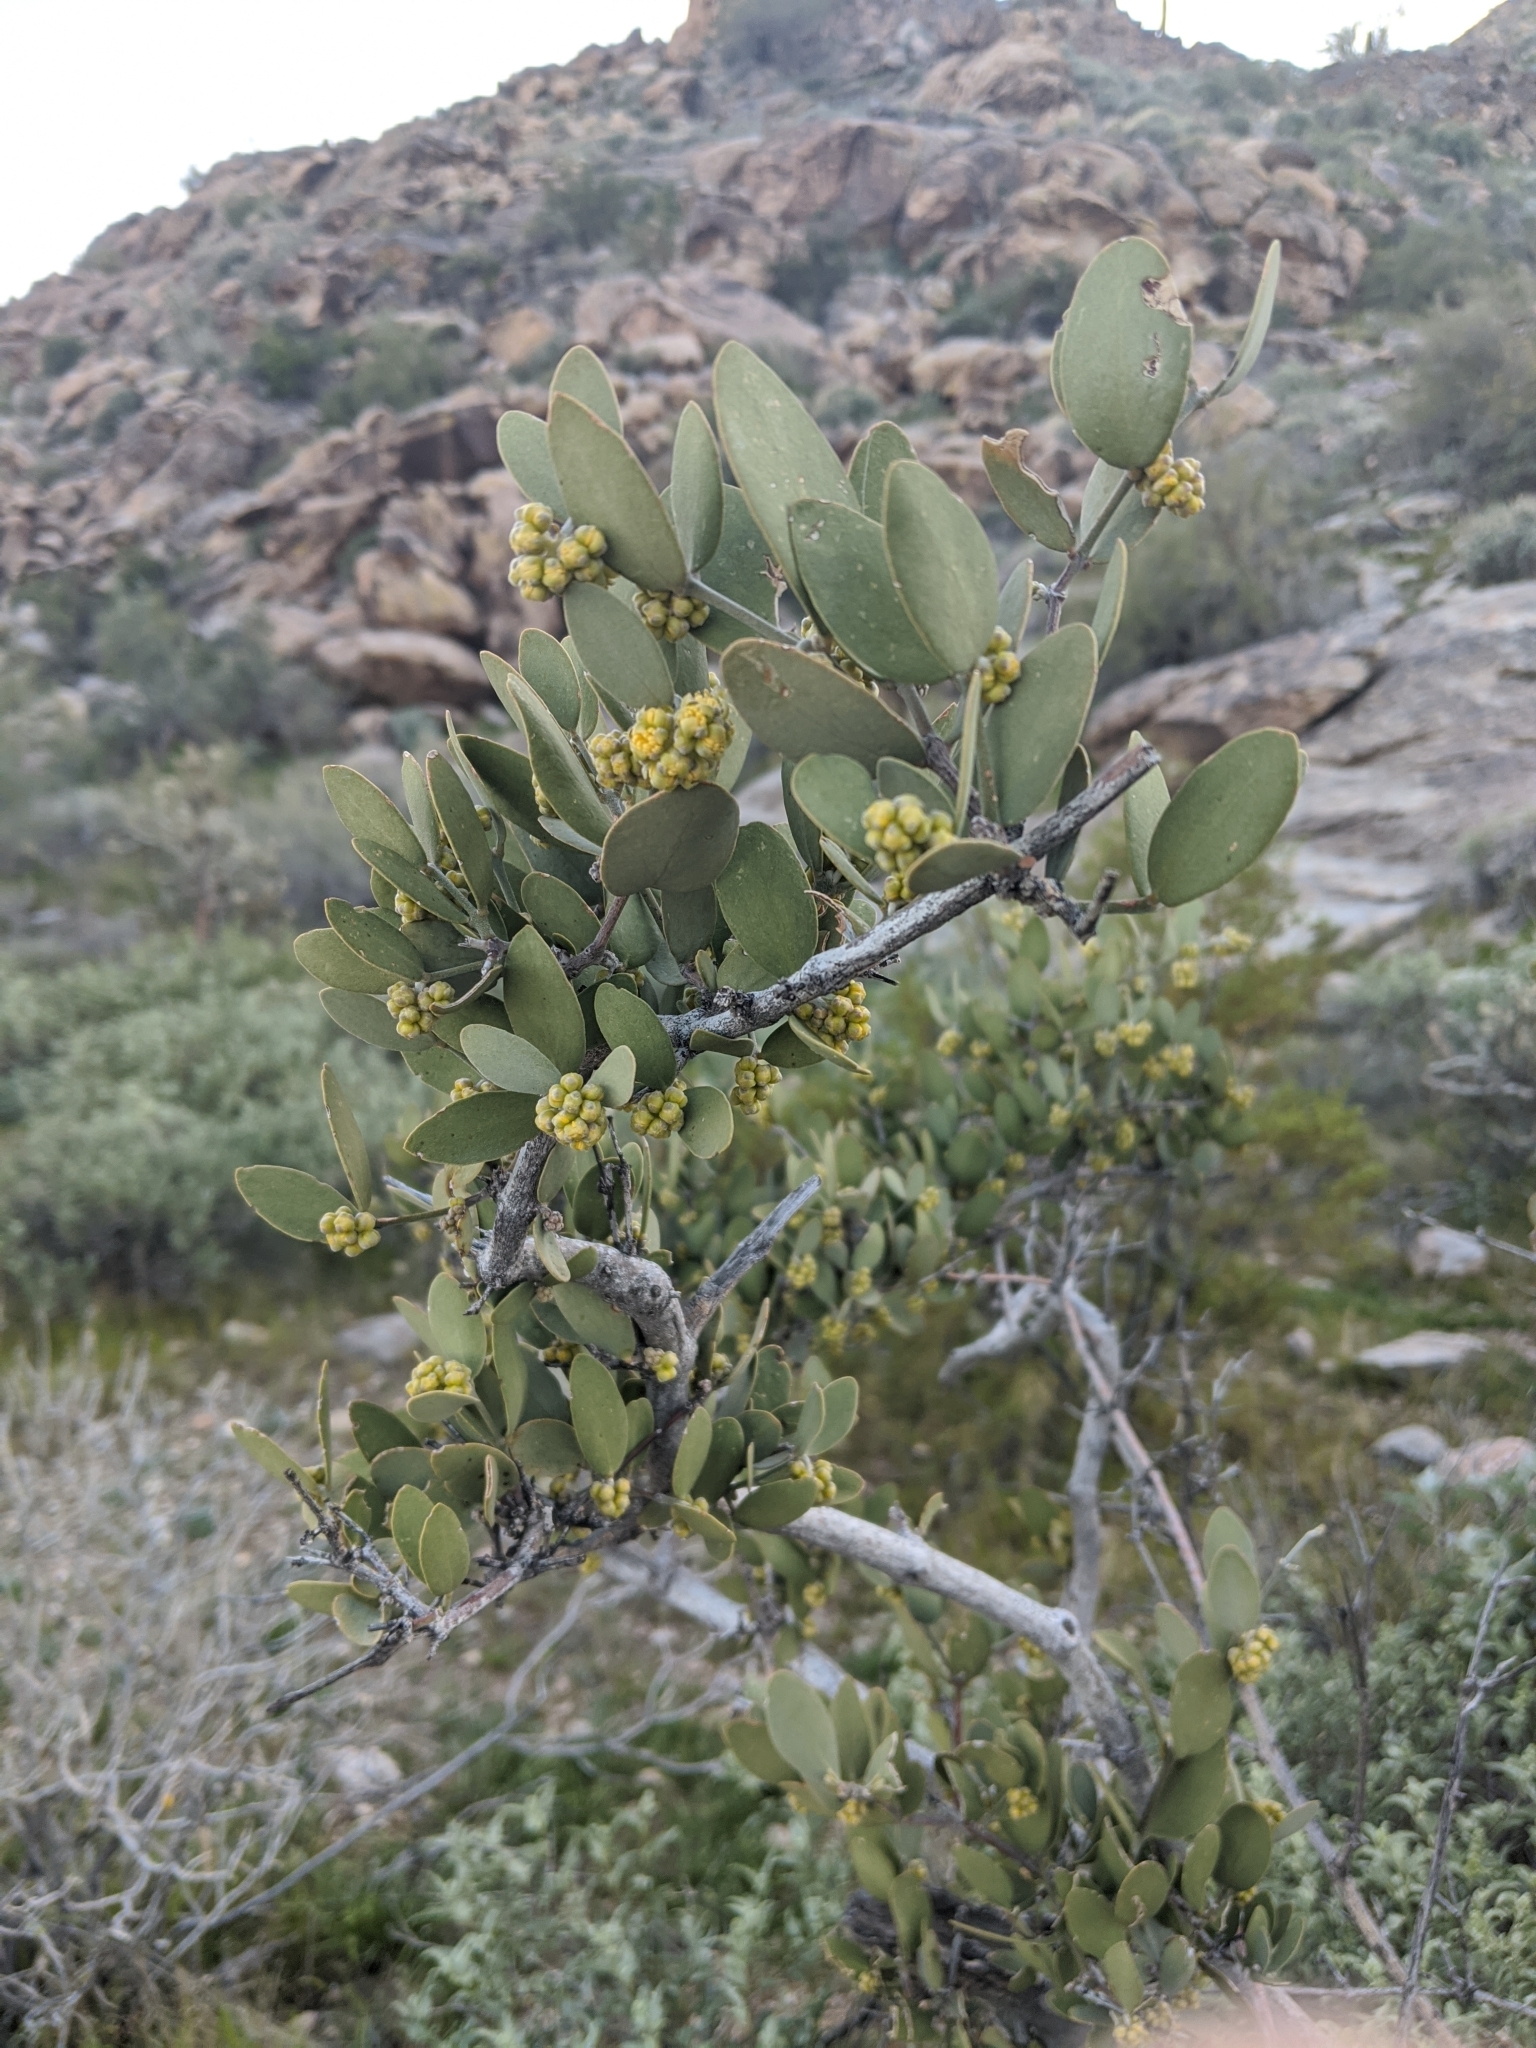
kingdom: Plantae
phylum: Tracheophyta
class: Magnoliopsida
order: Caryophyllales
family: Simmondsiaceae
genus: Simmondsia
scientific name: Simmondsia chinensis
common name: Jojoba
